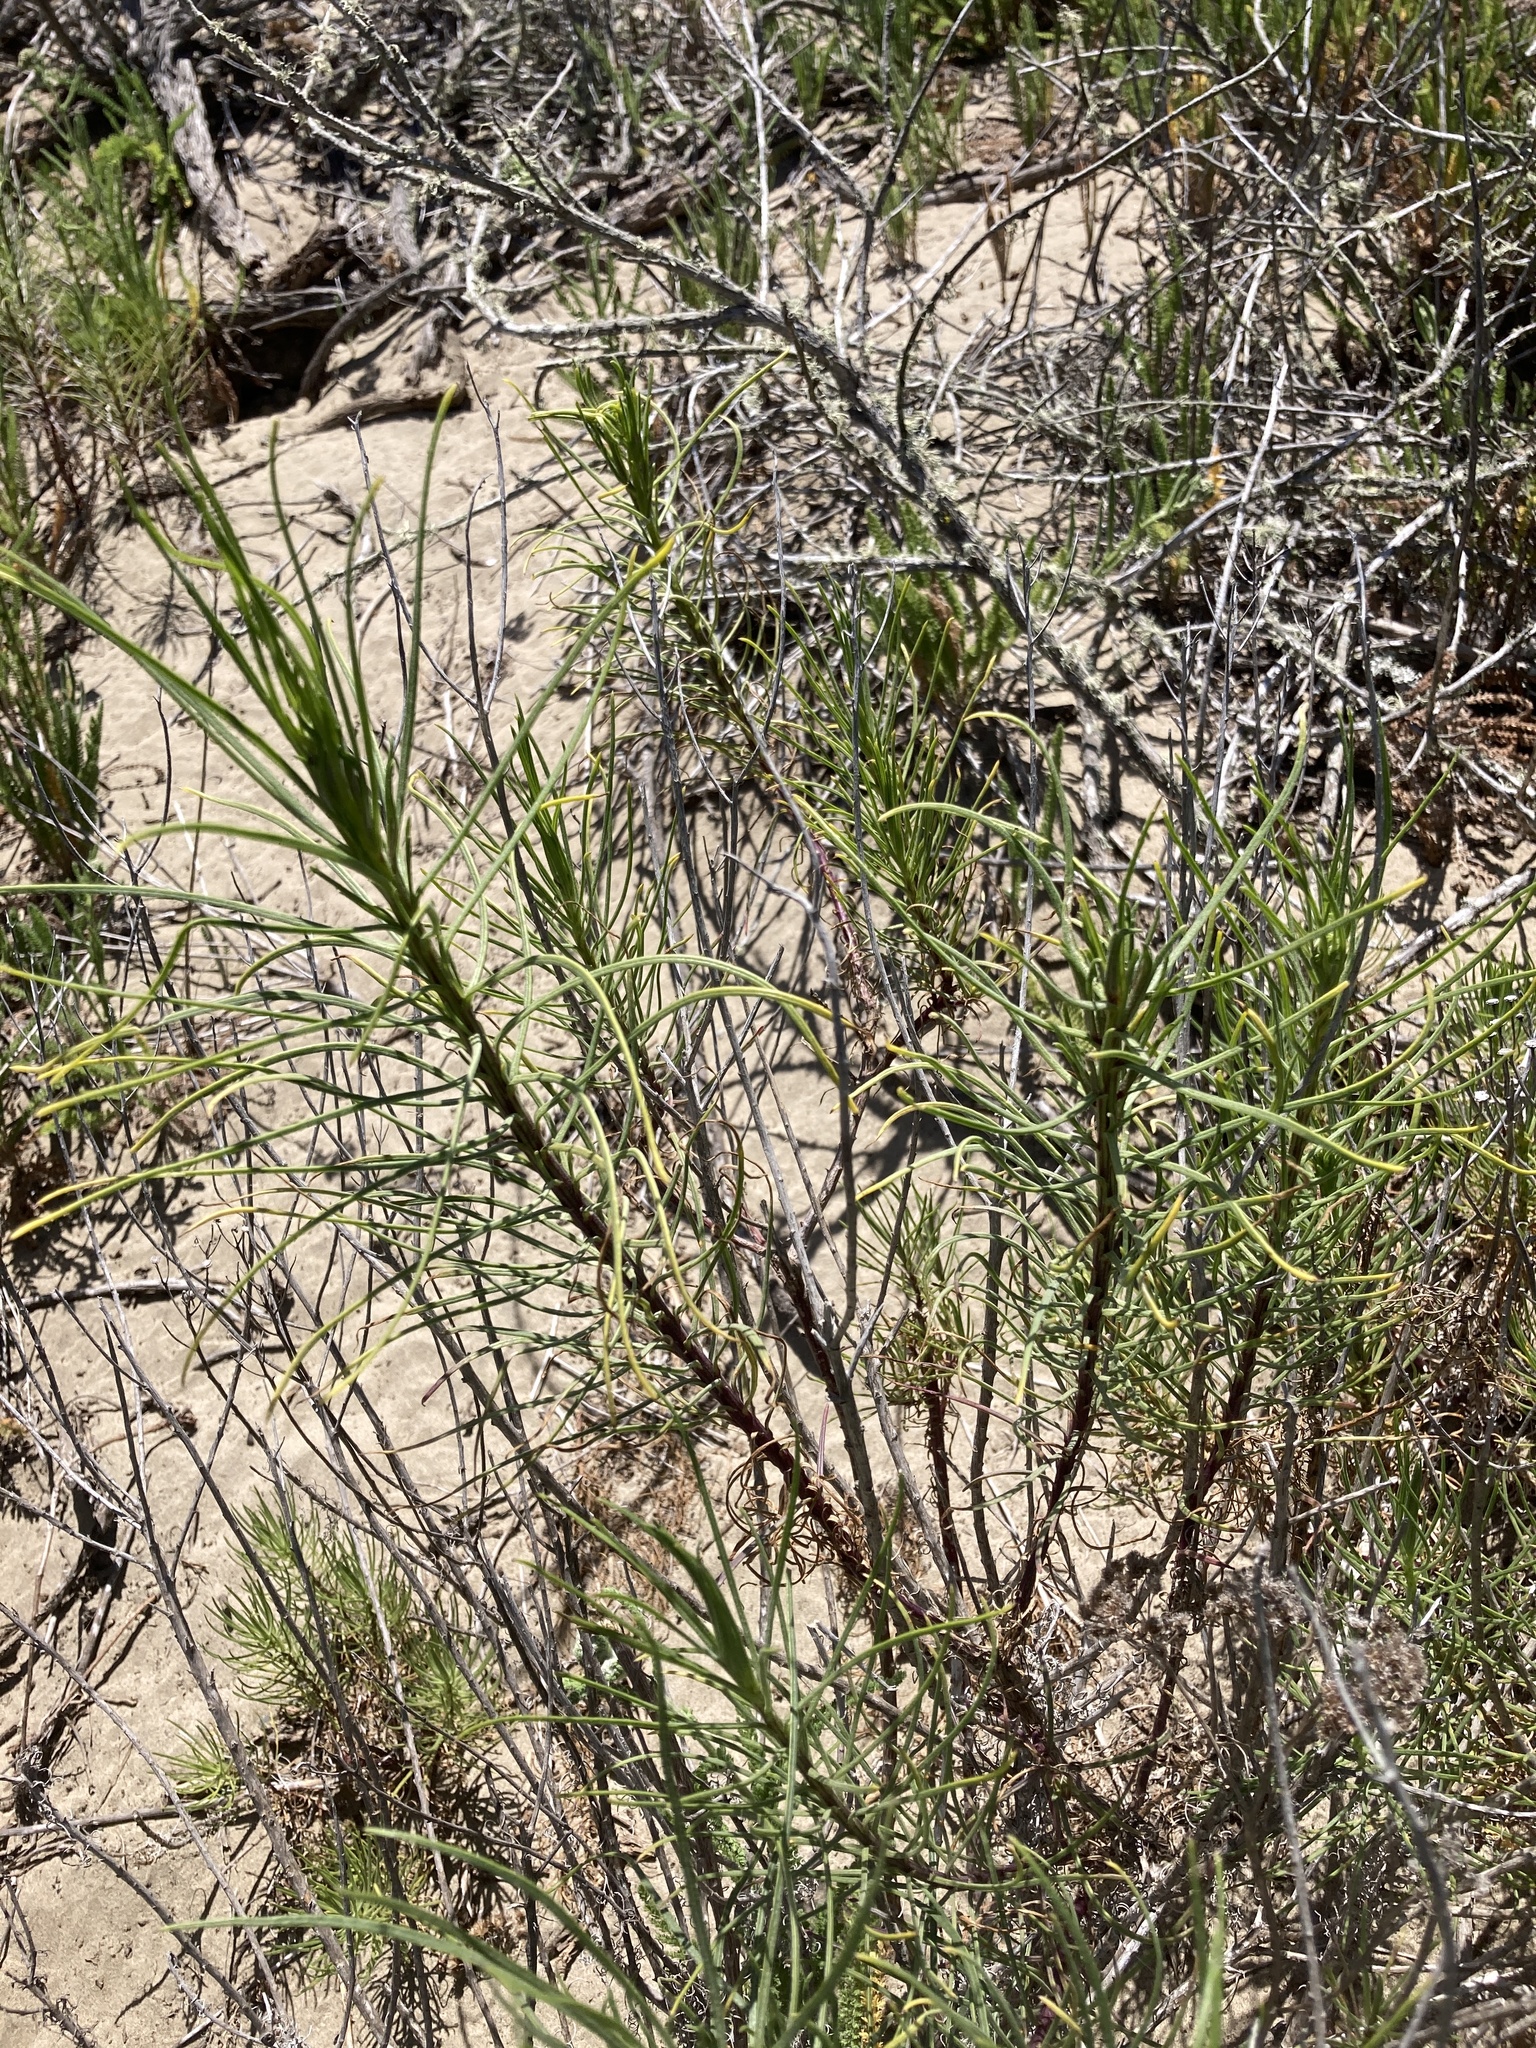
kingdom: Plantae
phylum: Tracheophyta
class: Magnoliopsida
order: Asterales
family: Asteraceae
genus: Senecio
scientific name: Senecio blochmaniae
